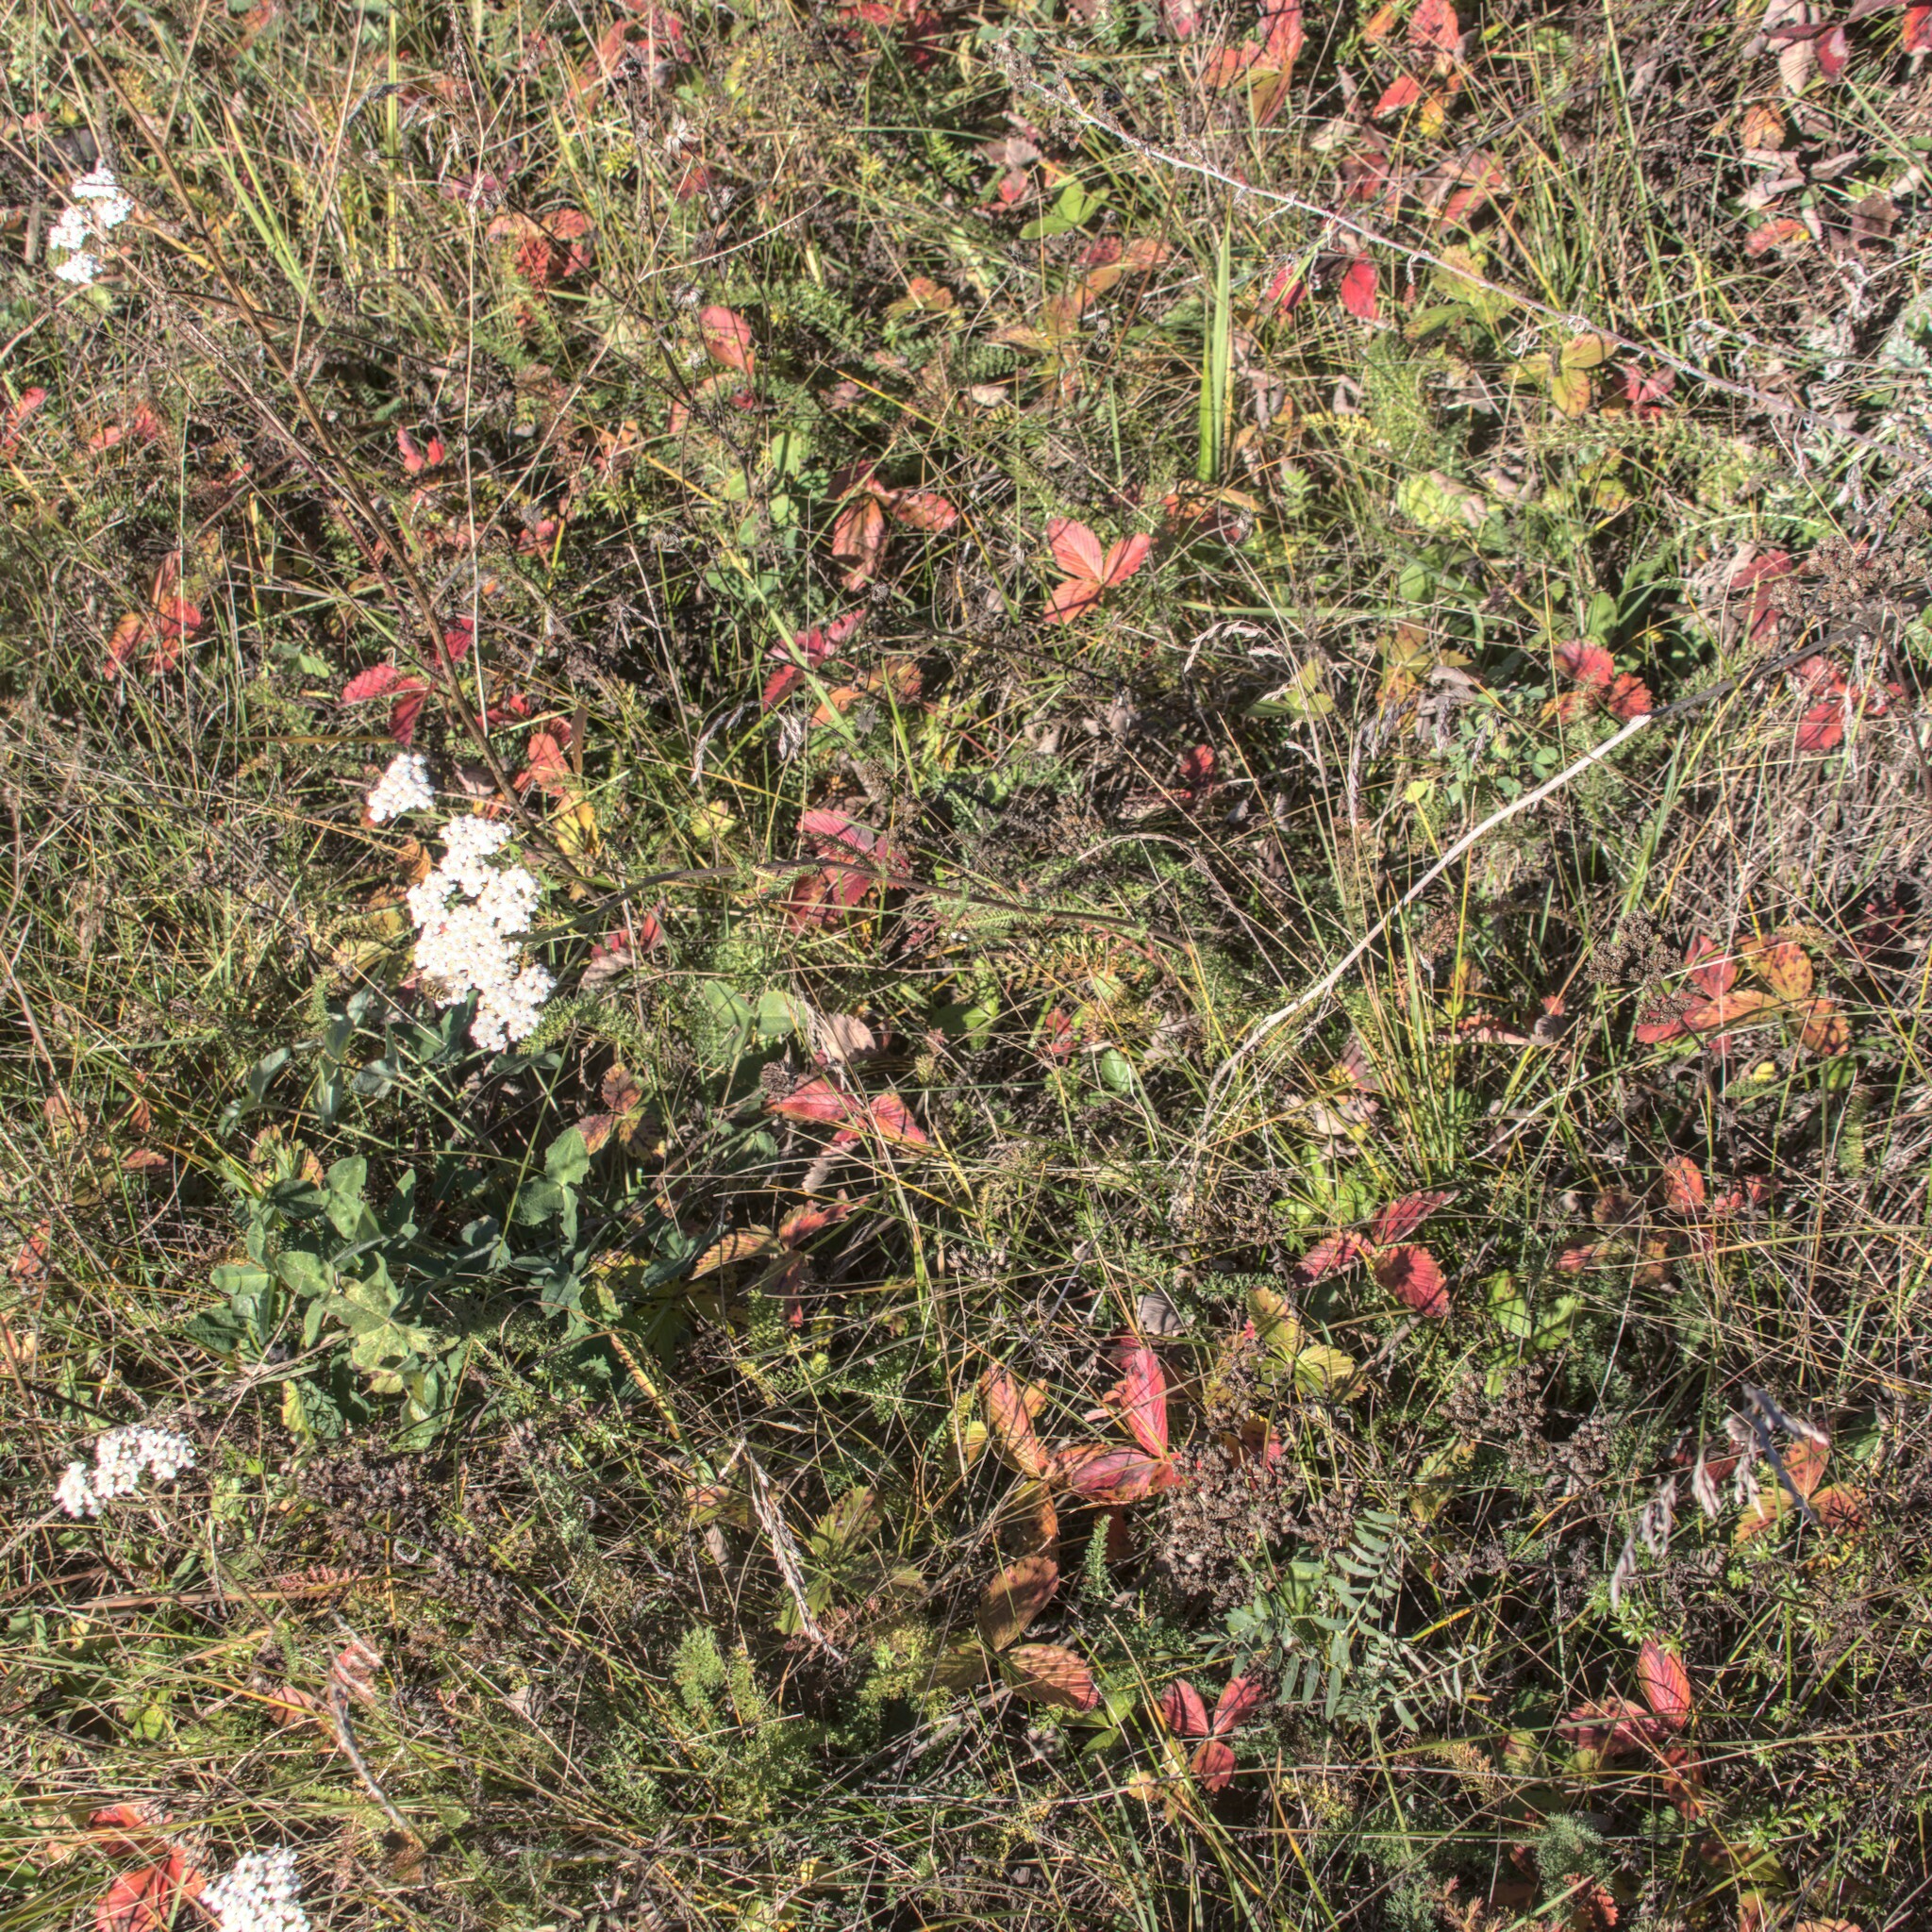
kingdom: Plantae
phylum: Tracheophyta
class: Magnoliopsida
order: Asterales
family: Asteraceae
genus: Achillea
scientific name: Achillea millefolium
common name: Yarrow
